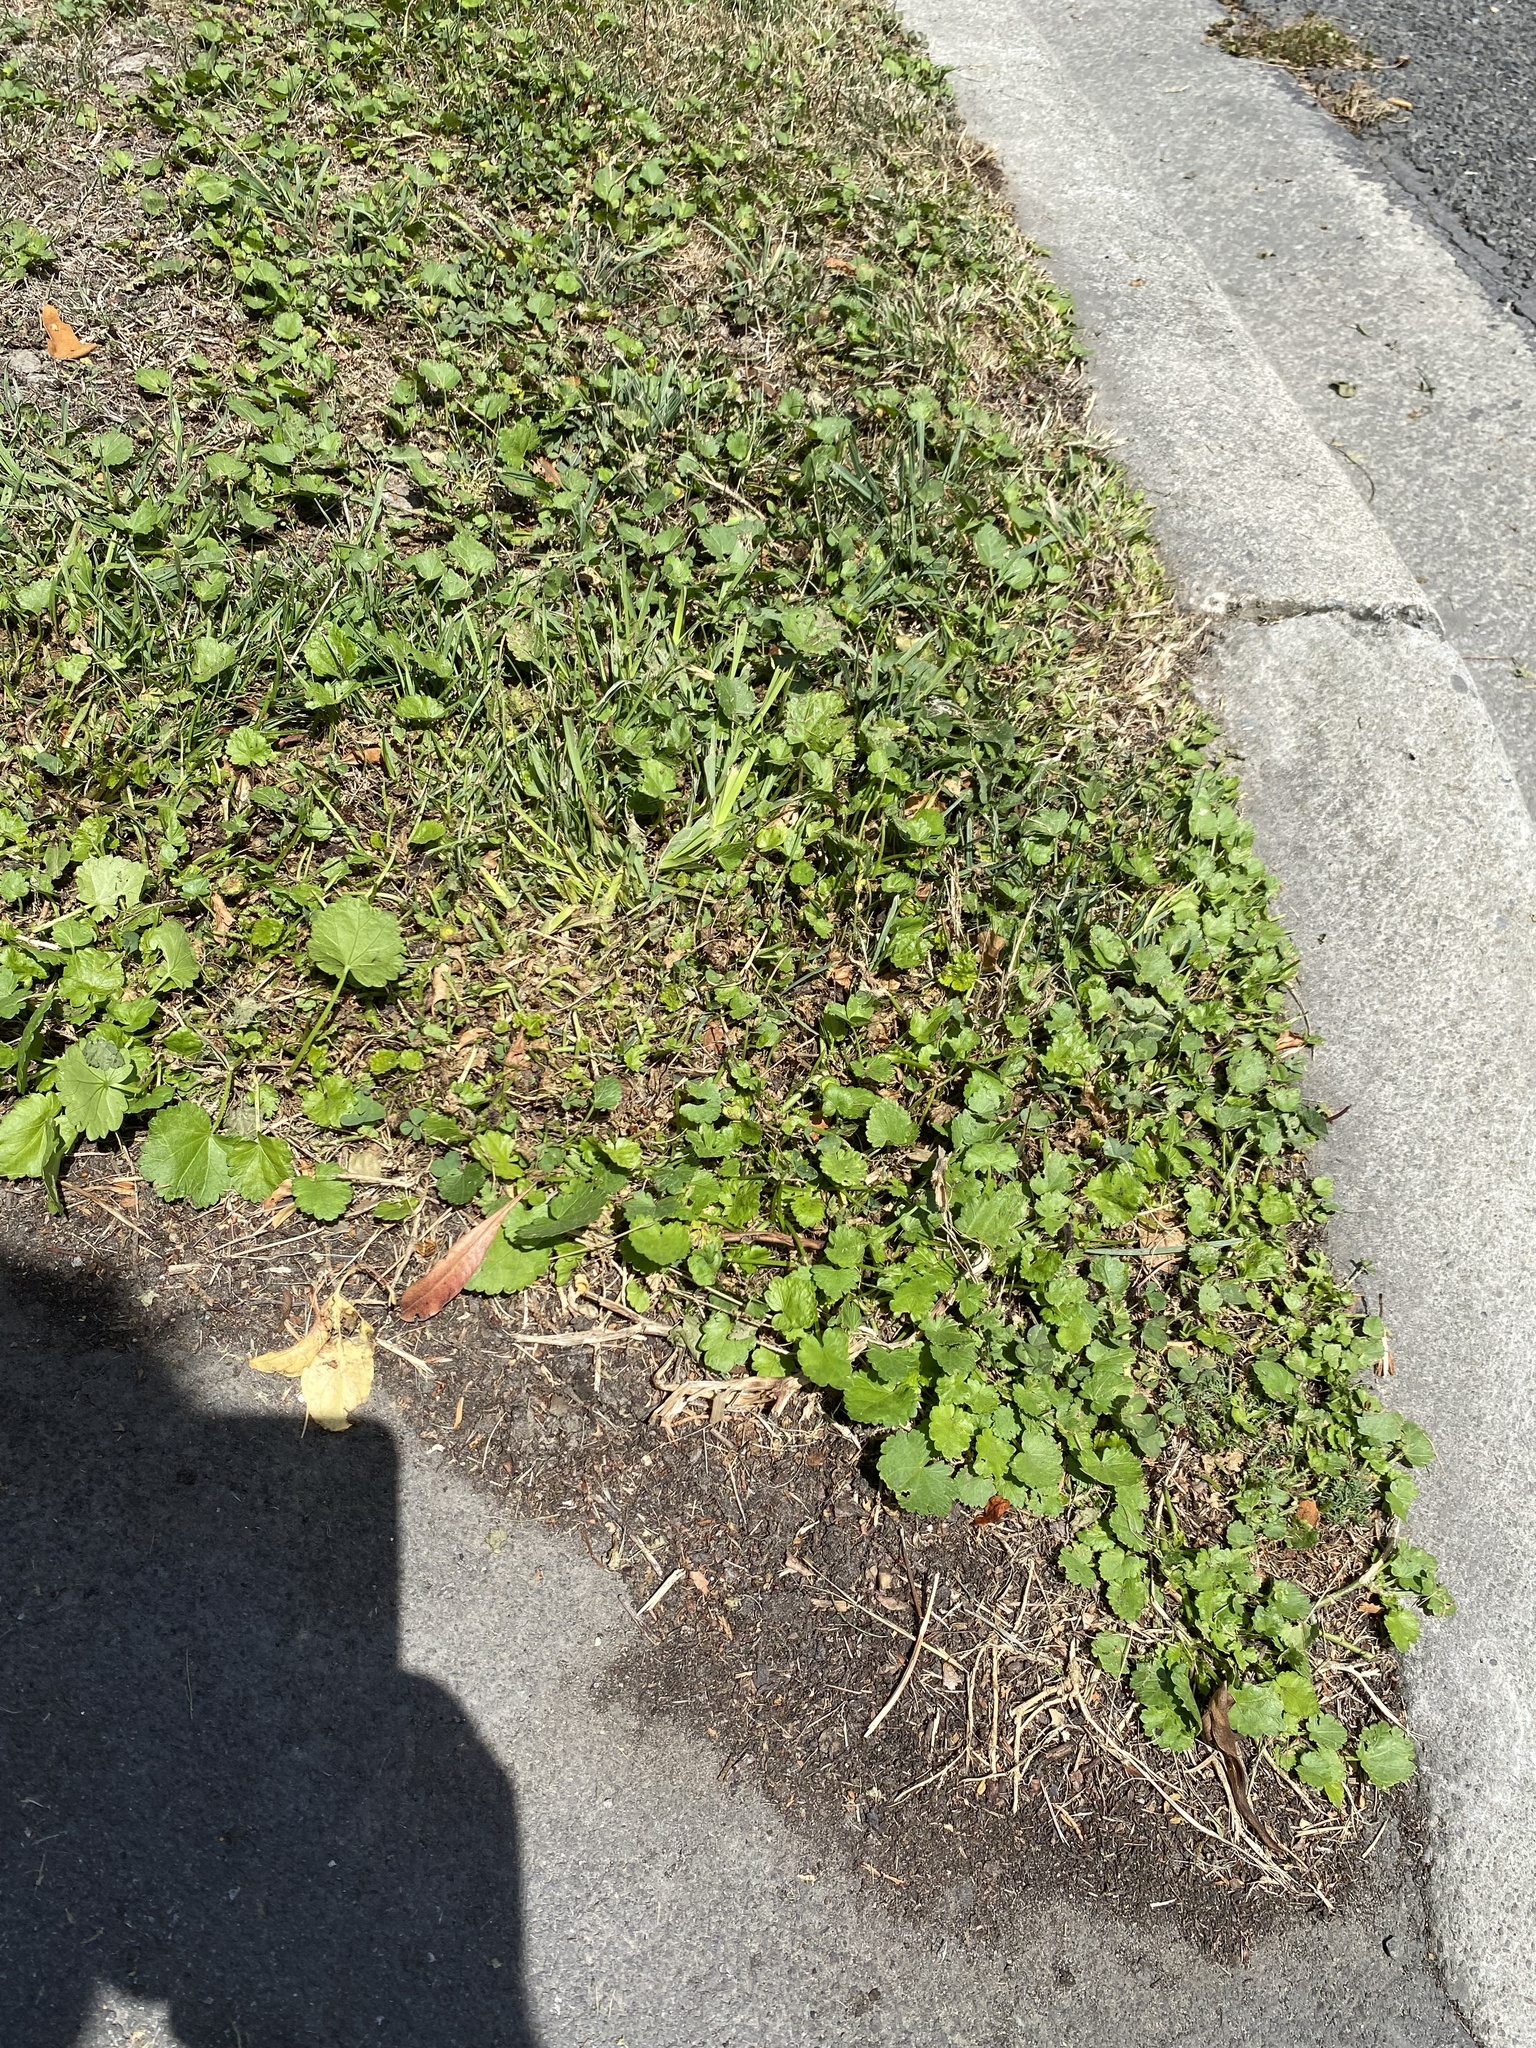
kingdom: Plantae
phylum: Tracheophyta
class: Magnoliopsida
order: Malvales
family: Malvaceae
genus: Modiola
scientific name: Modiola caroliniana
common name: Carolina bristlemallow
